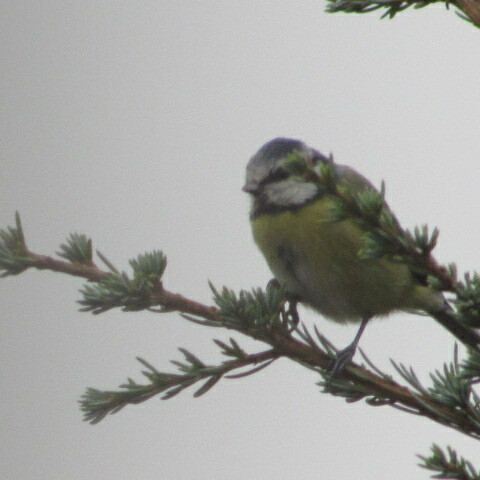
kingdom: Animalia
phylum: Chordata
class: Aves
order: Passeriformes
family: Paridae
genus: Cyanistes
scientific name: Cyanistes caeruleus
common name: Eurasian blue tit
